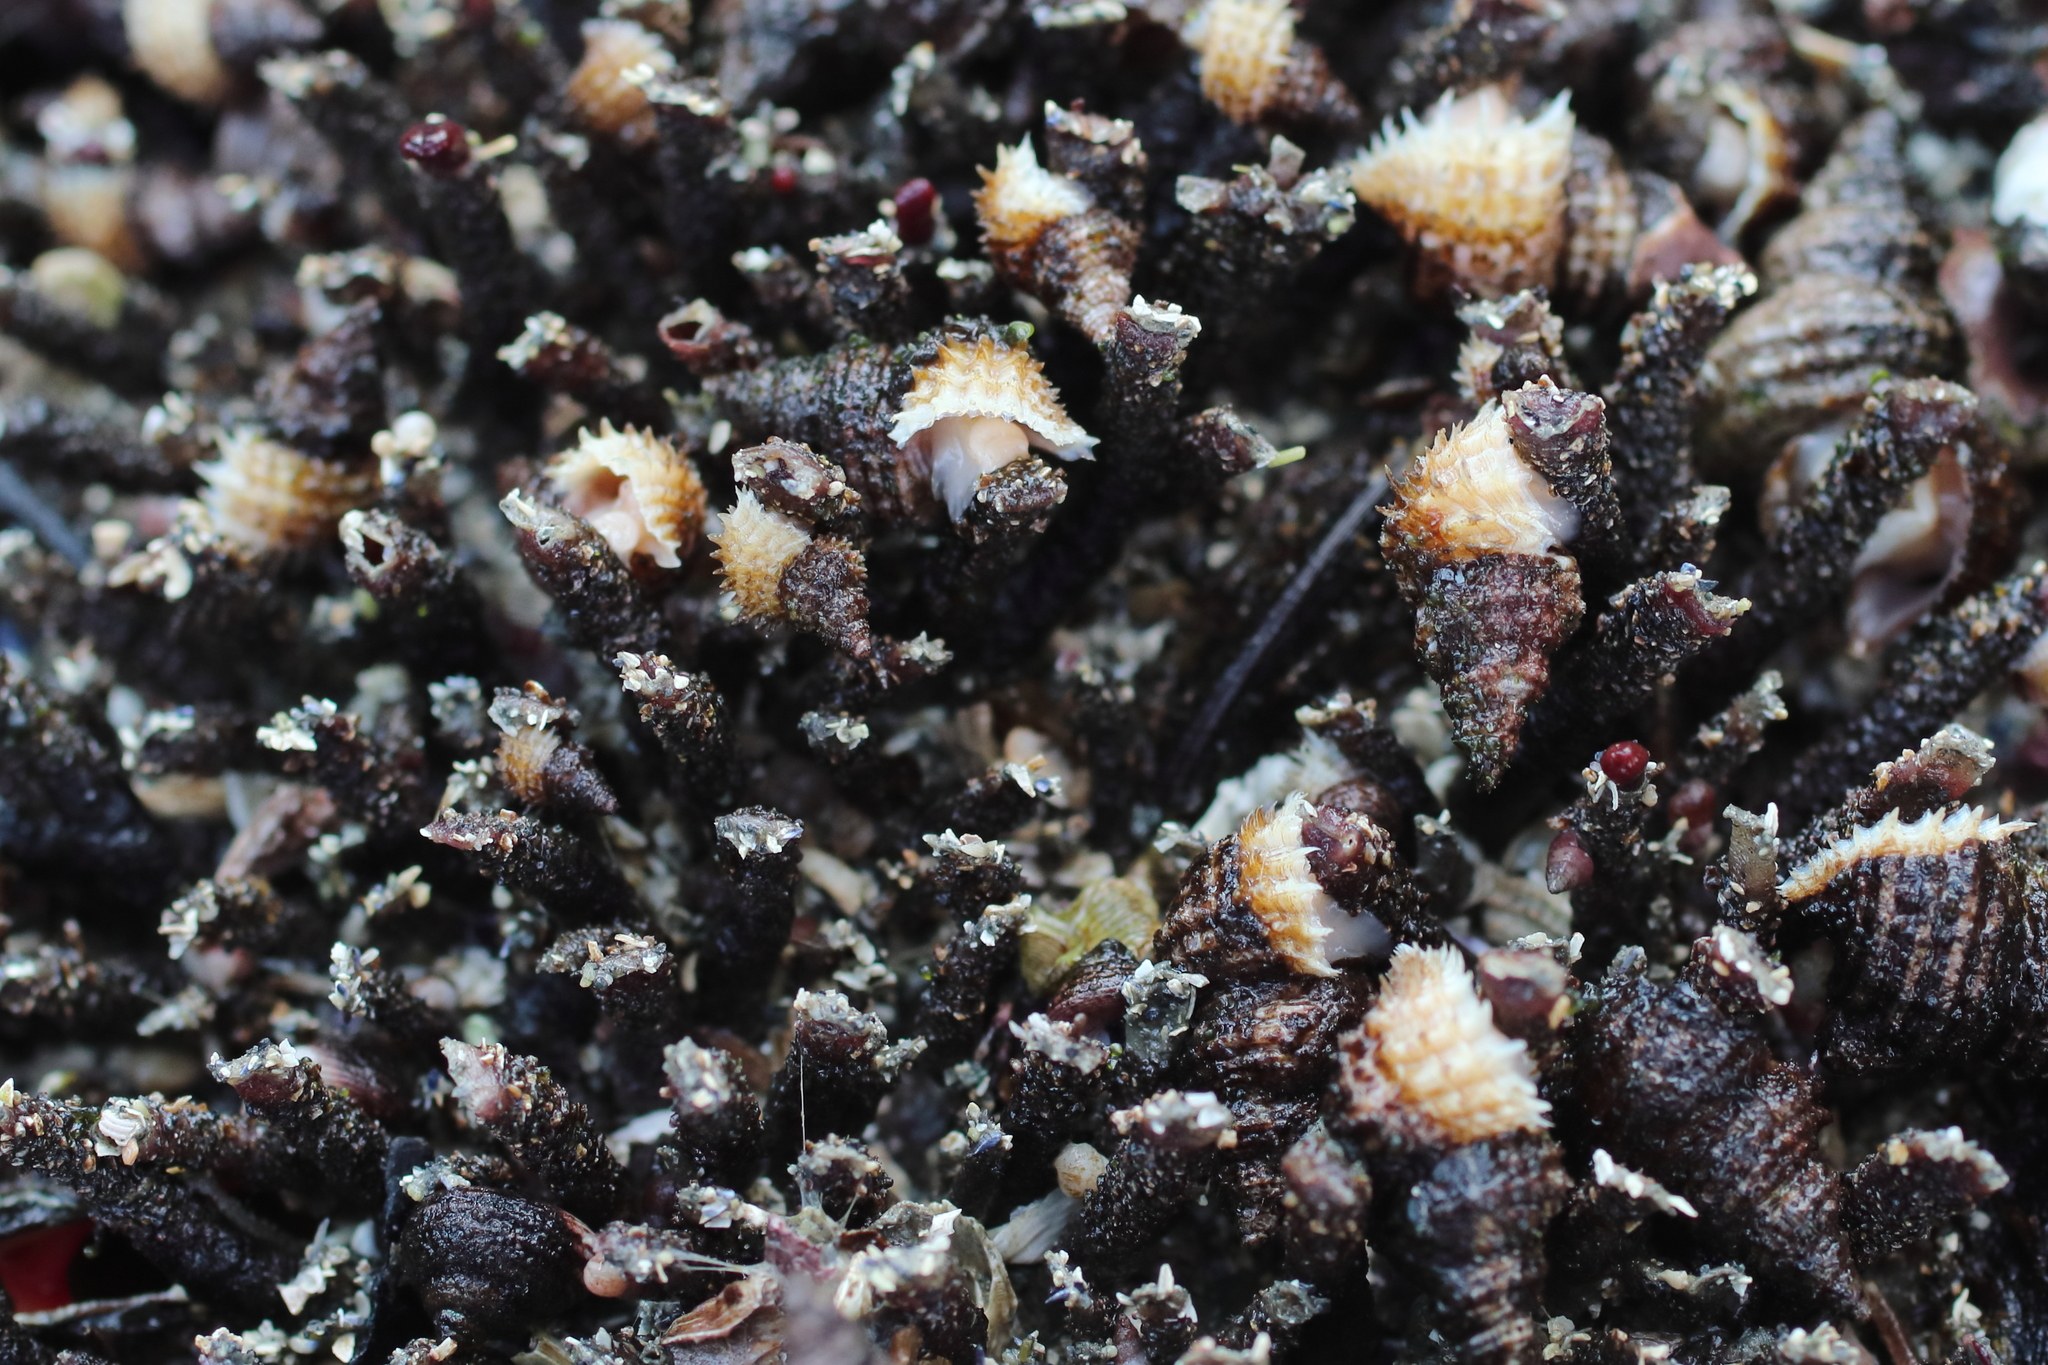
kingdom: Animalia
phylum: Mollusca
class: Gastropoda
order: Littorinimorpha
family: Capulidae
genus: Trichotropis
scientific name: Trichotropis cancellata
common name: Cancellate hairysnail
